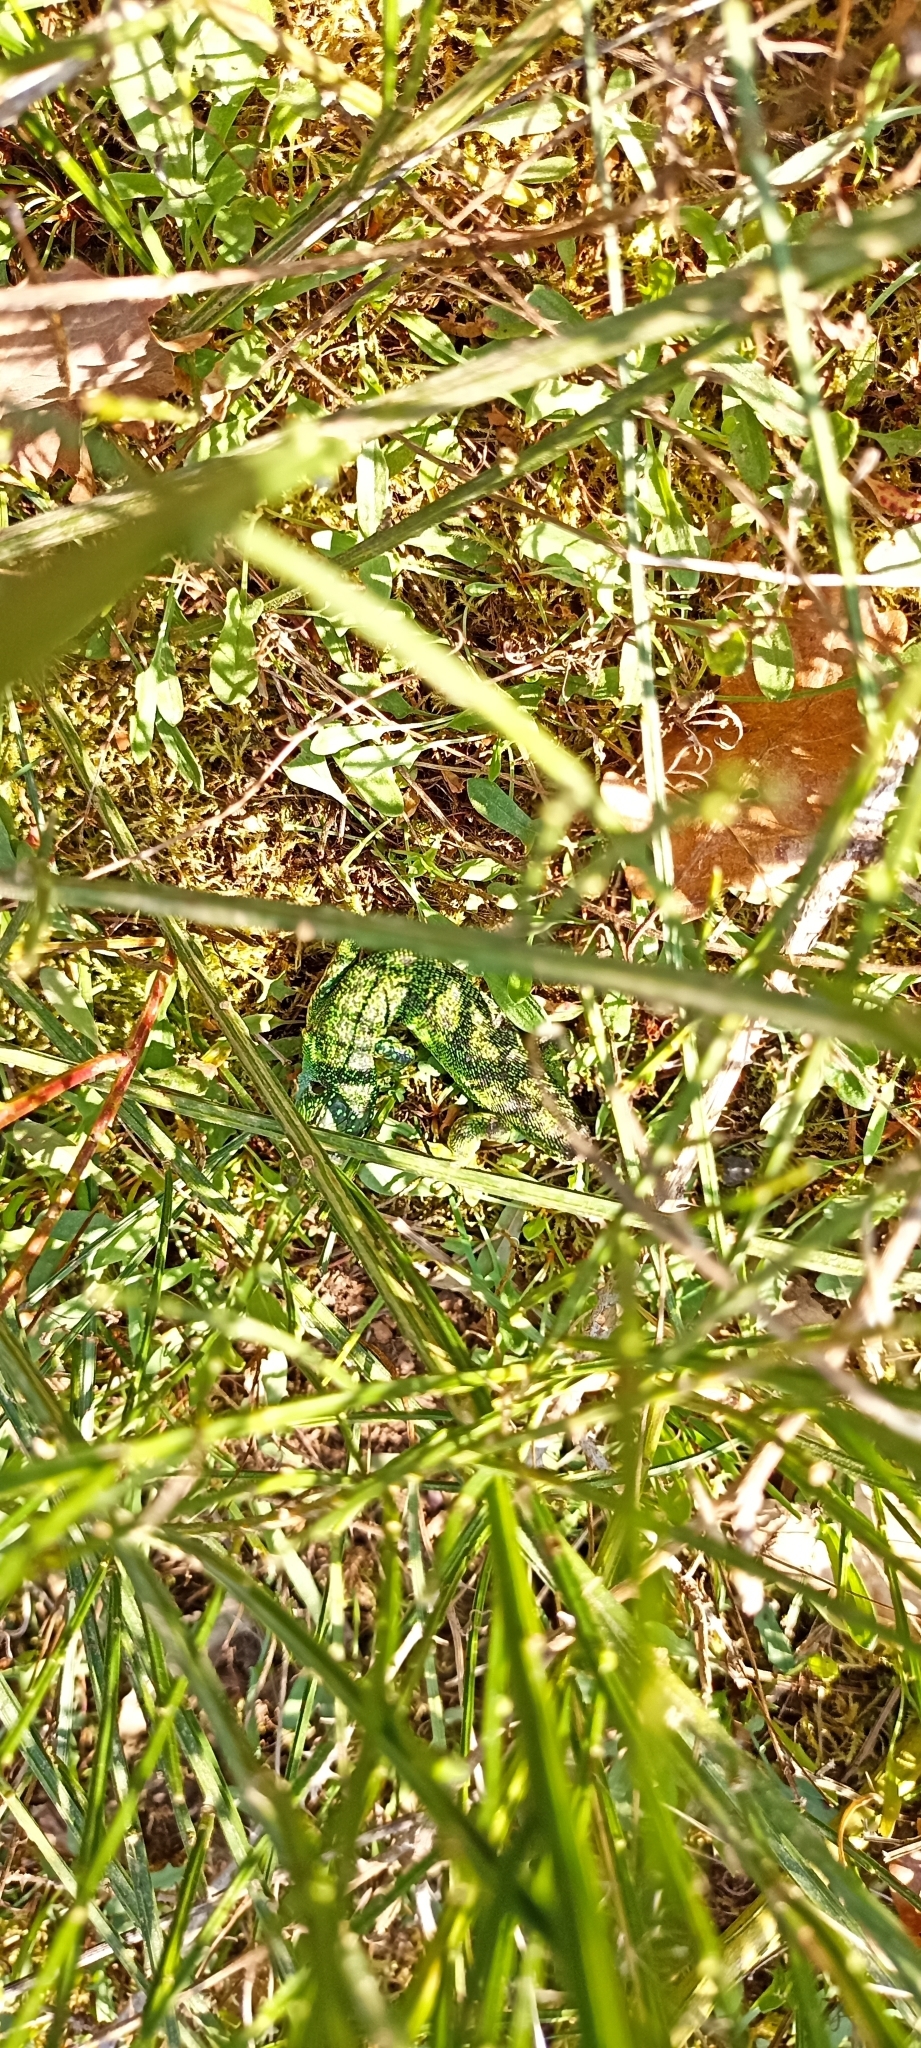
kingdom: Animalia
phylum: Chordata
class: Squamata
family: Lacertidae
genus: Lacerta
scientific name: Lacerta bilineata
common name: Western green lizard
